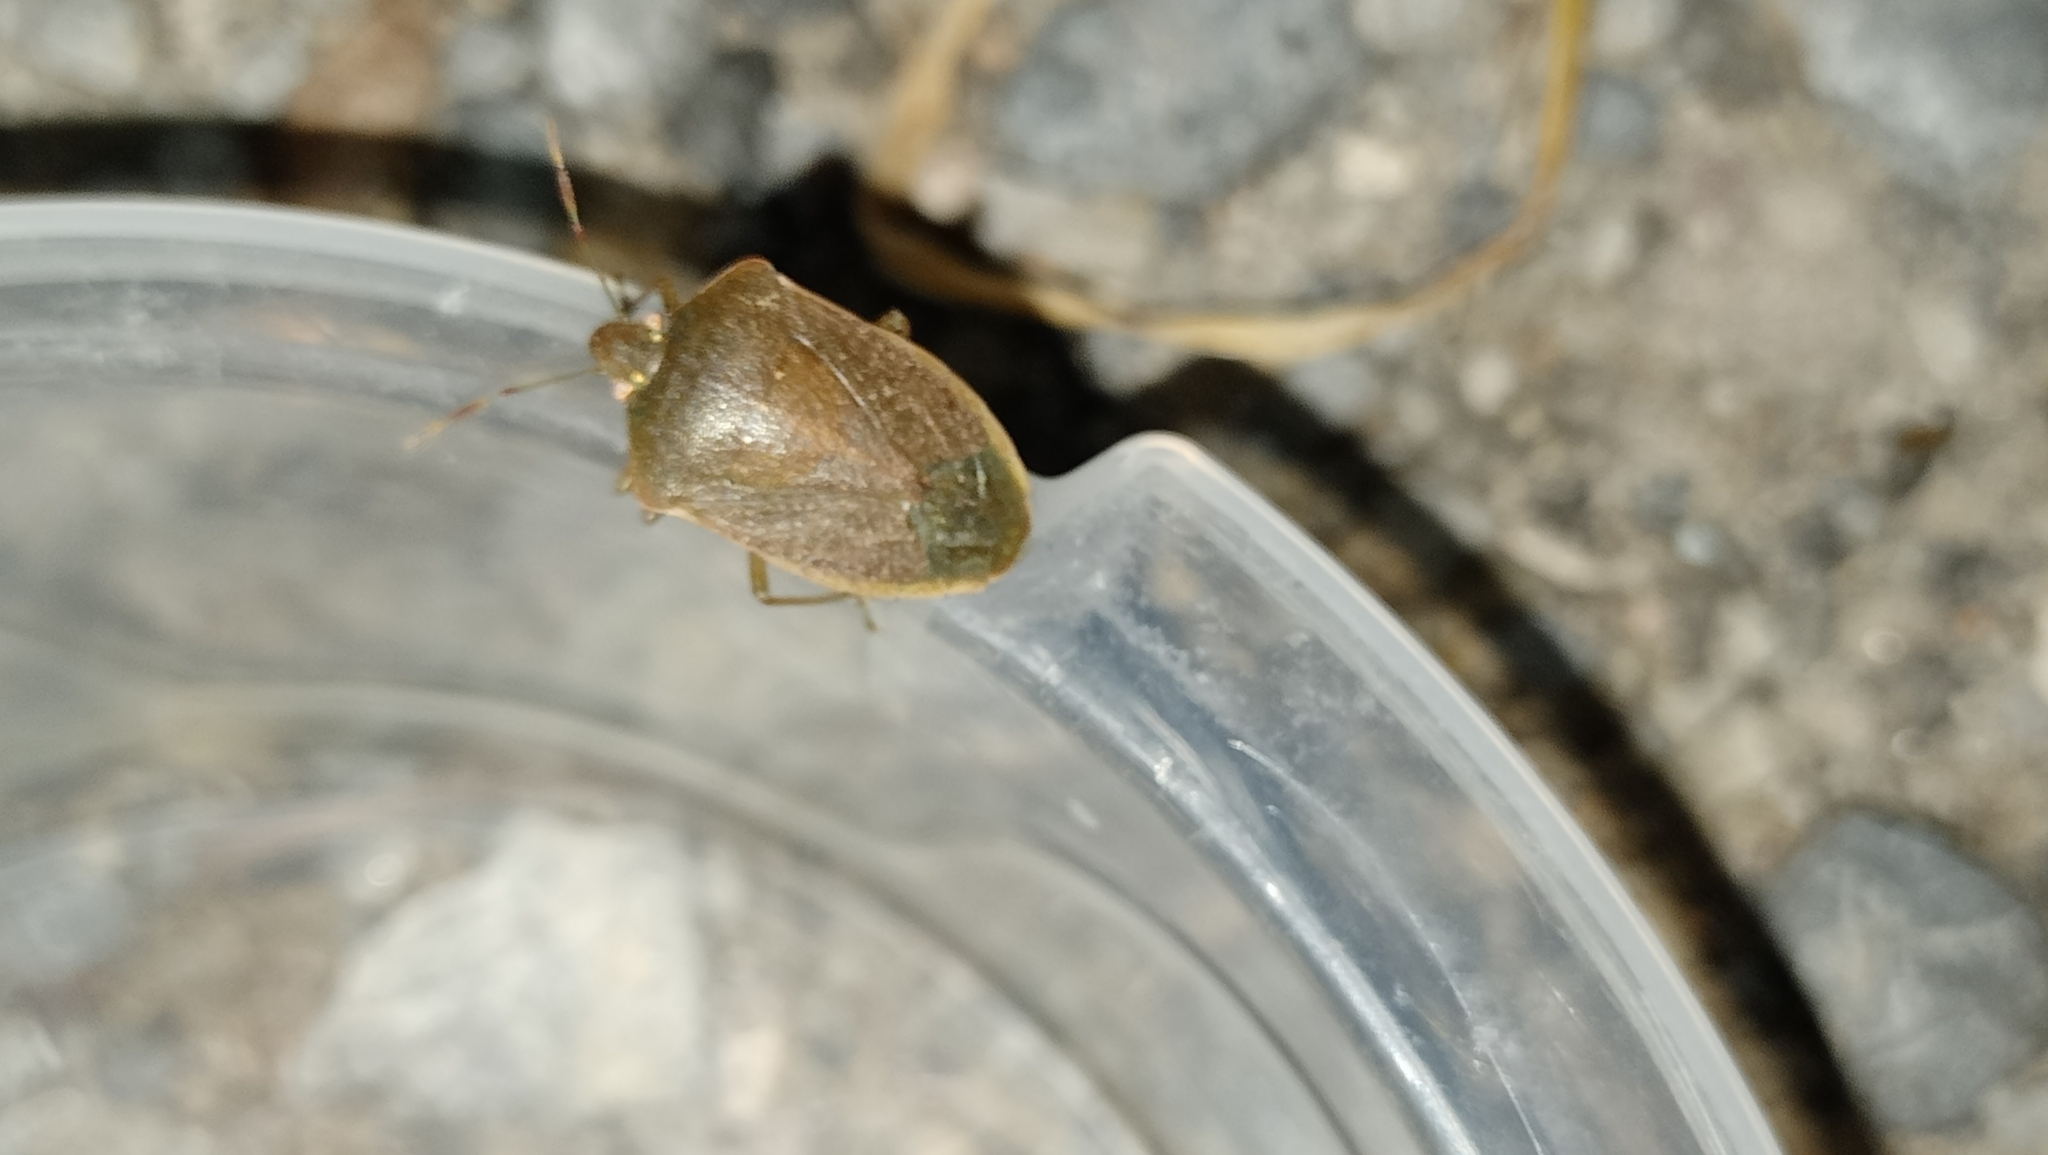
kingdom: Animalia
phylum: Arthropoda
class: Insecta
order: Hemiptera
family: Pentatomidae
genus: Nezara
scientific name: Nezara viridula
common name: Southern green stink bug
